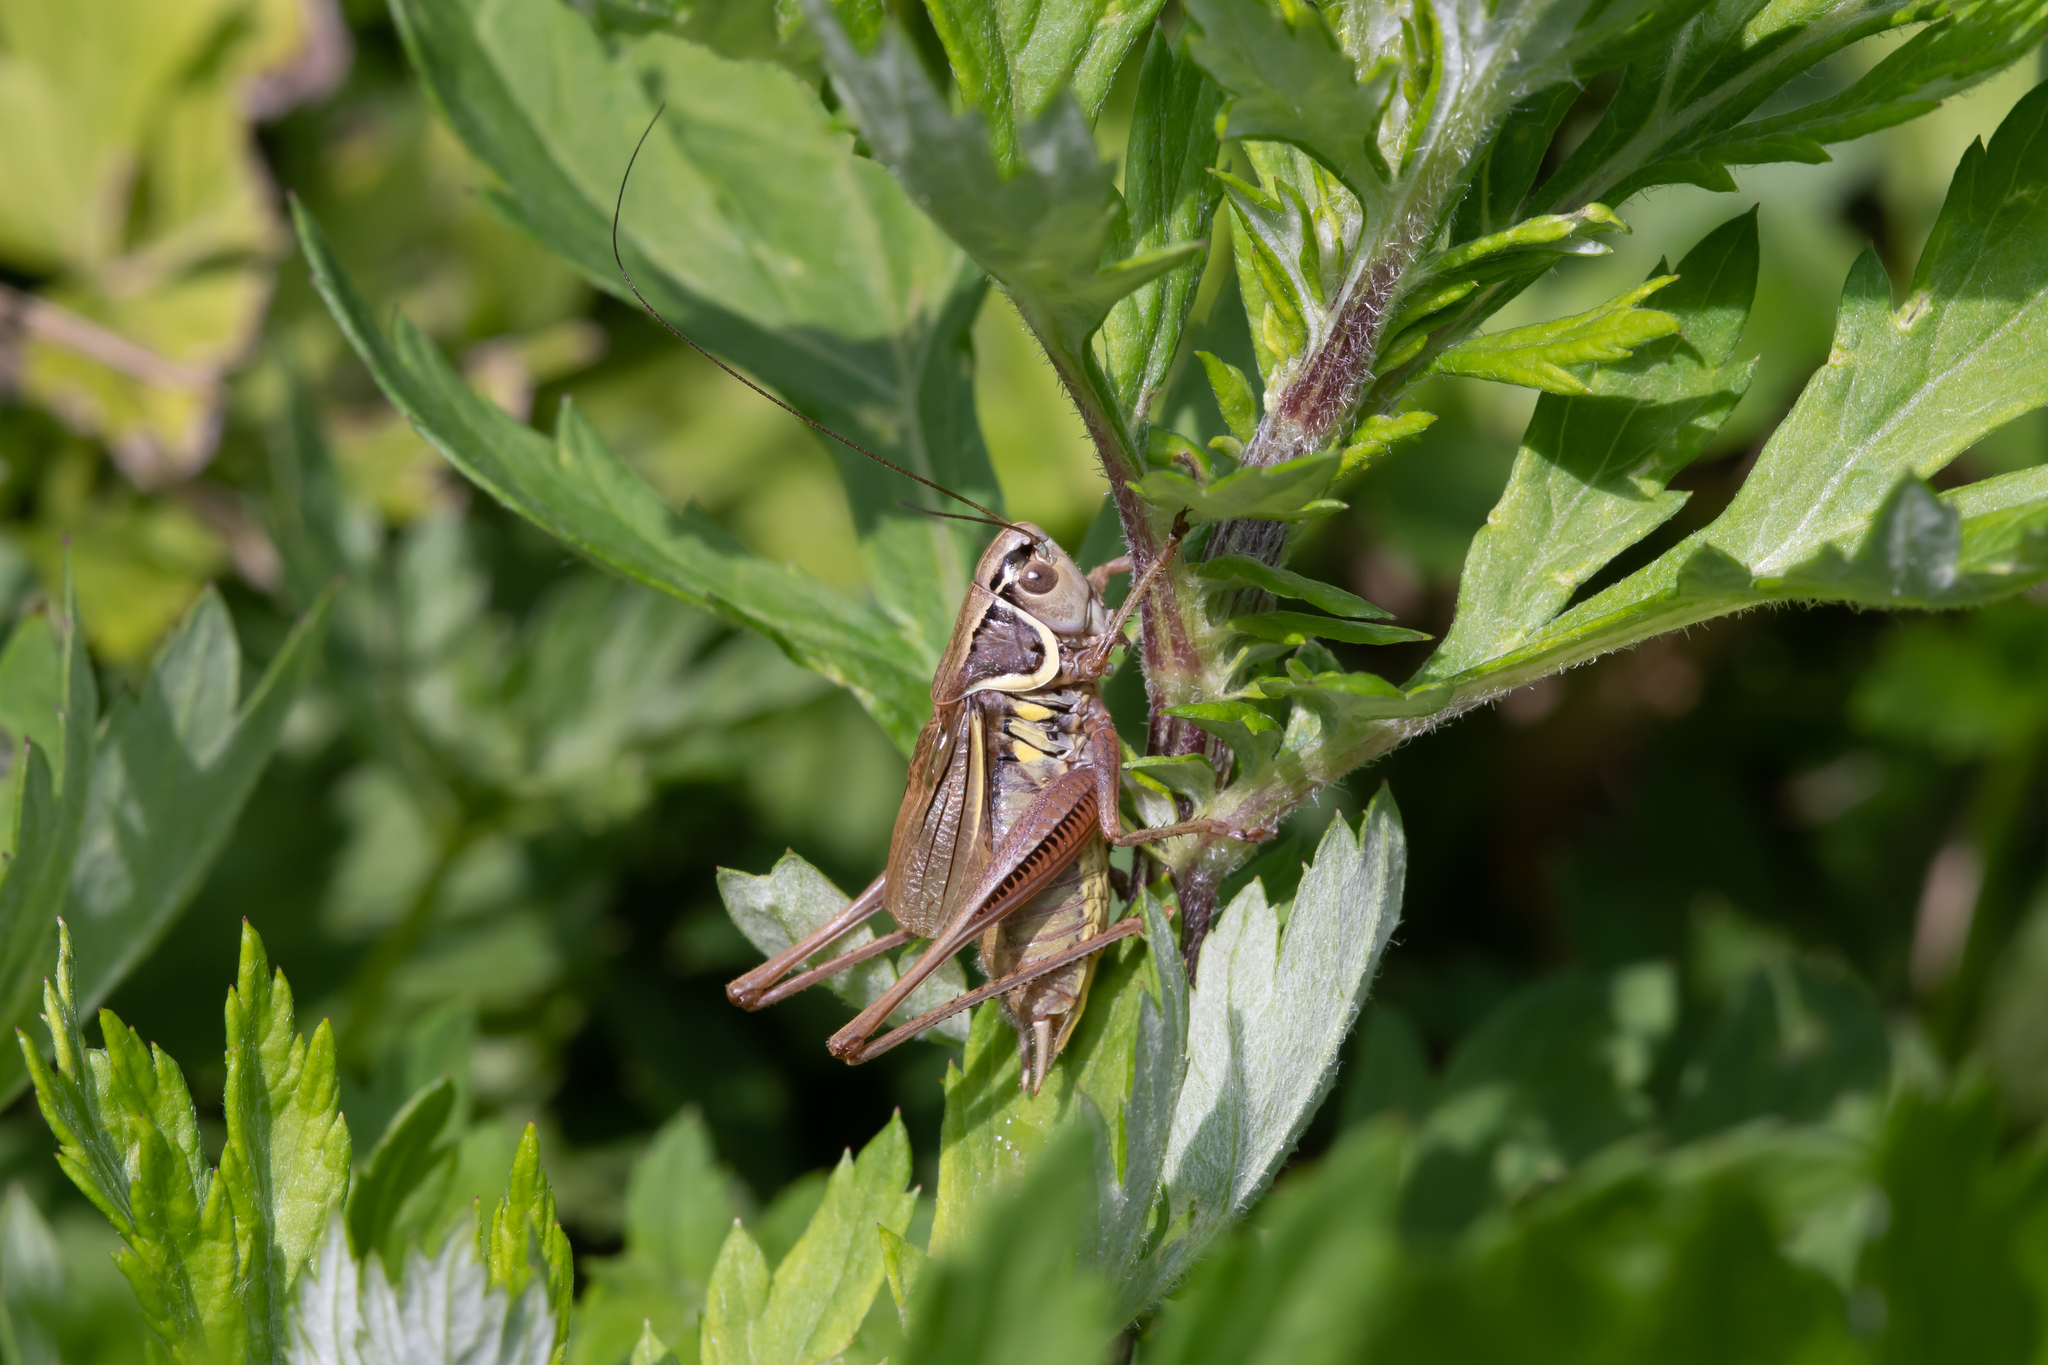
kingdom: Animalia
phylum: Arthropoda
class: Insecta
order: Orthoptera
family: Tettigoniidae
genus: Roeseliana
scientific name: Roeseliana roeselii
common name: Roesel's bush cricket
